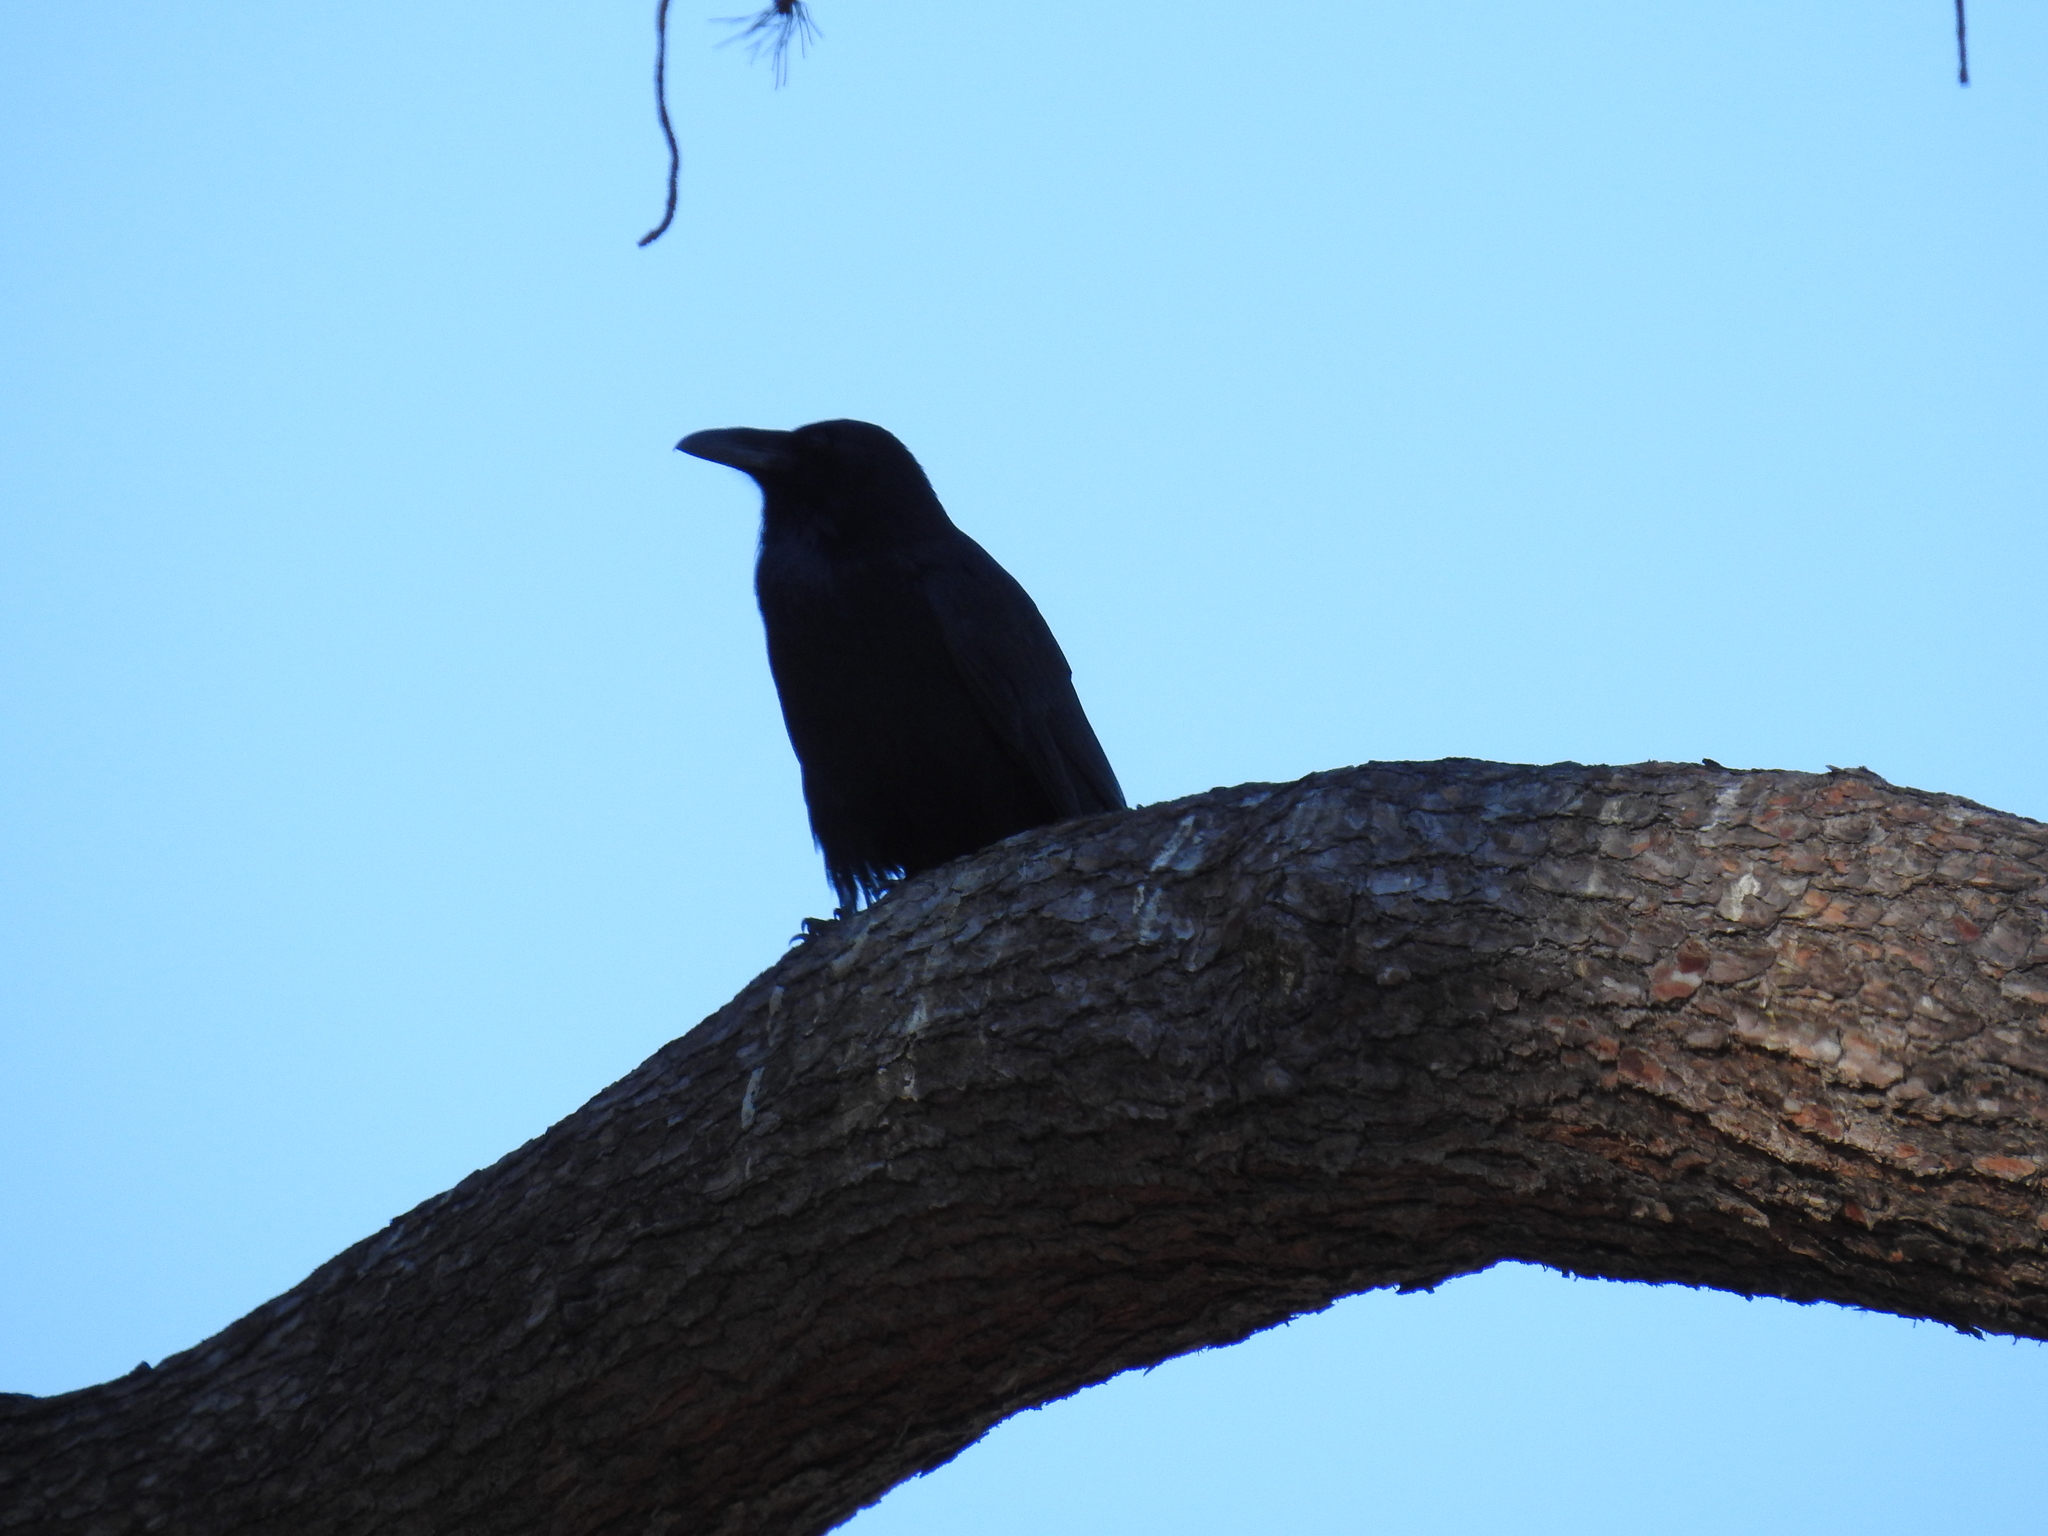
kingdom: Animalia
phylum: Chordata
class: Aves
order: Passeriformes
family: Corvidae
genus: Corvus
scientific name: Corvus corax
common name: Common raven
